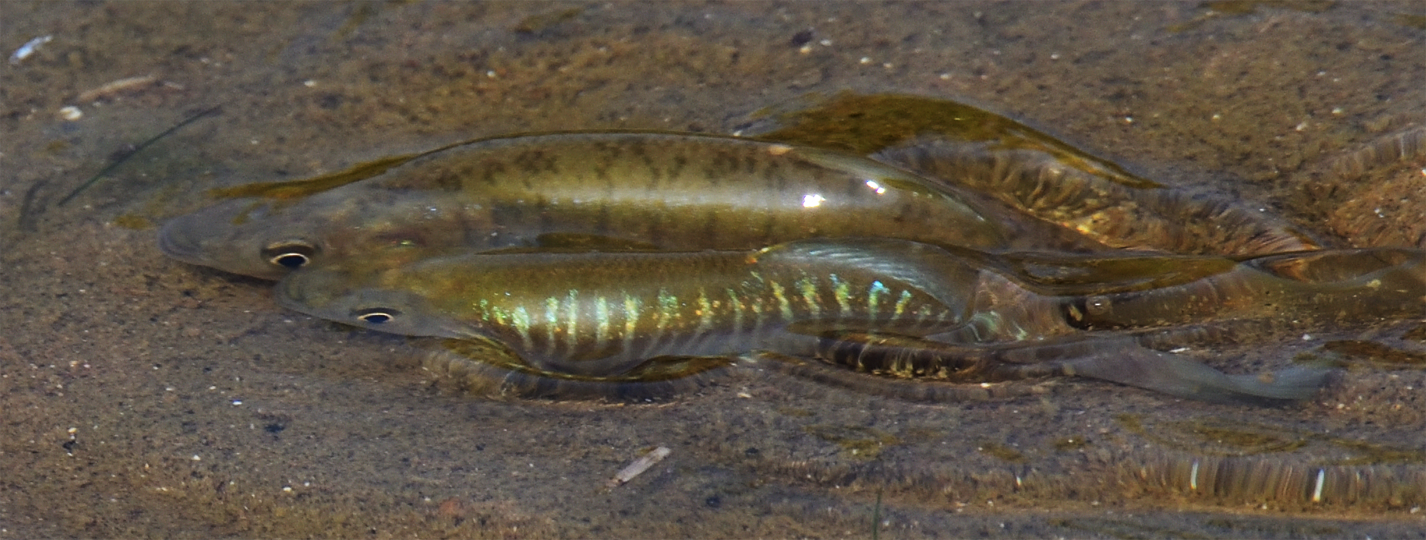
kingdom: Animalia
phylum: Chordata
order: Cyprinodontiformes
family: Fundulidae
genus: Fundulus
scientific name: Fundulus diaphanus
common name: Banded killifish
